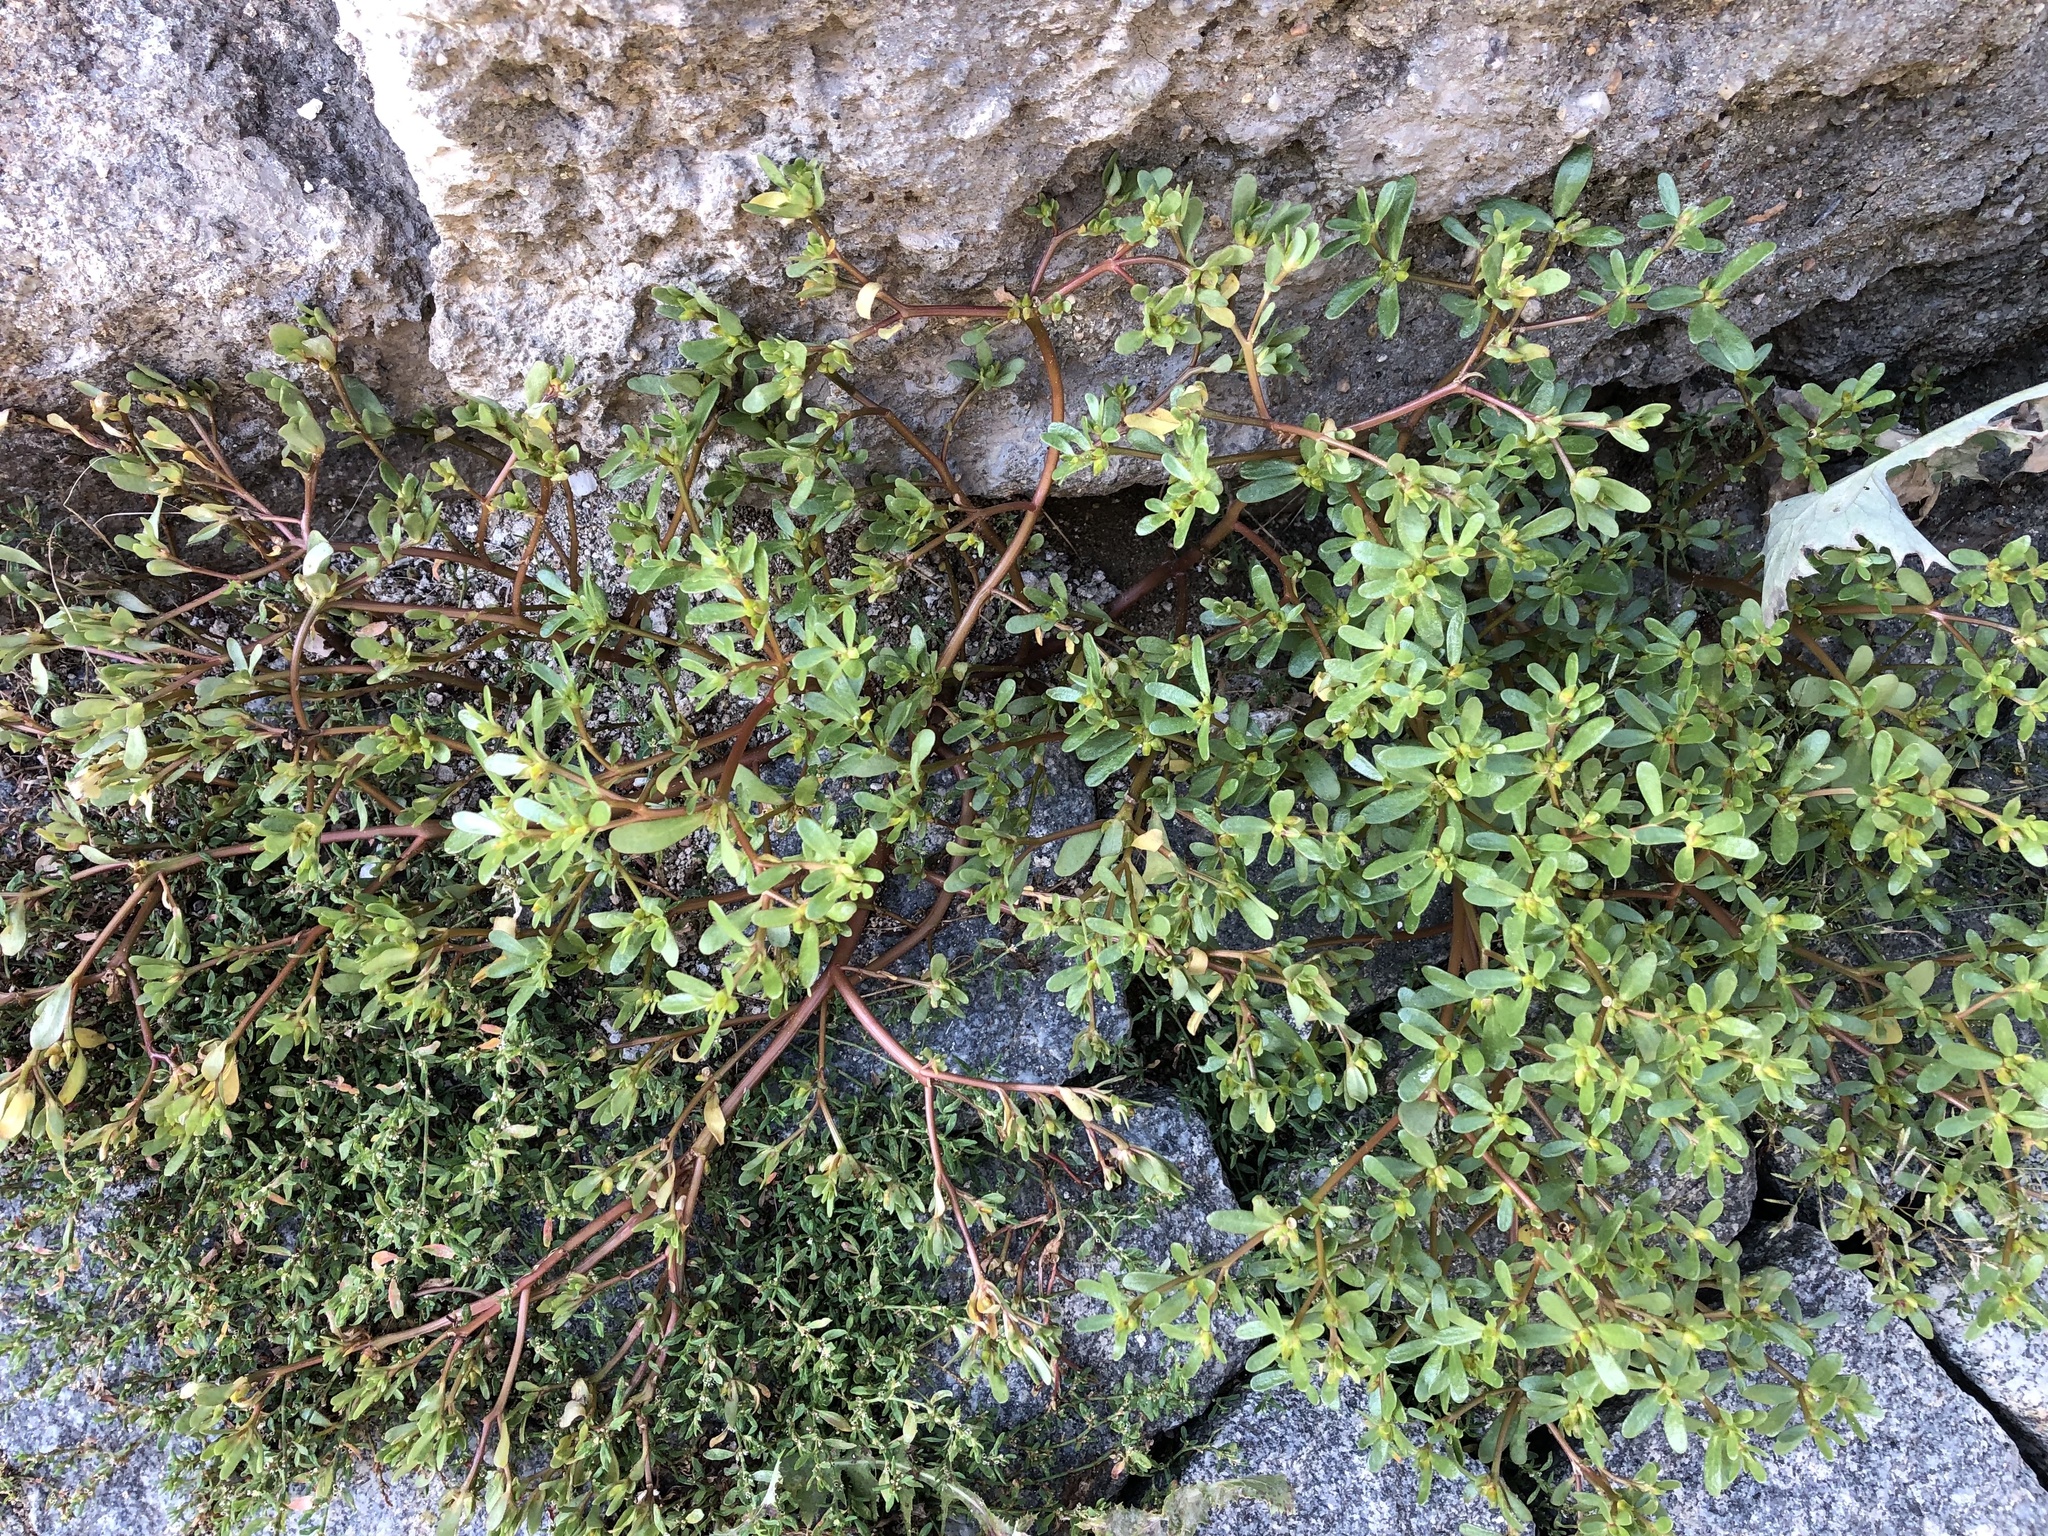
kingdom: Plantae
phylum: Tracheophyta
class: Magnoliopsida
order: Caryophyllales
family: Portulacaceae
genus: Portulaca
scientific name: Portulaca oleracea
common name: Common purslane
